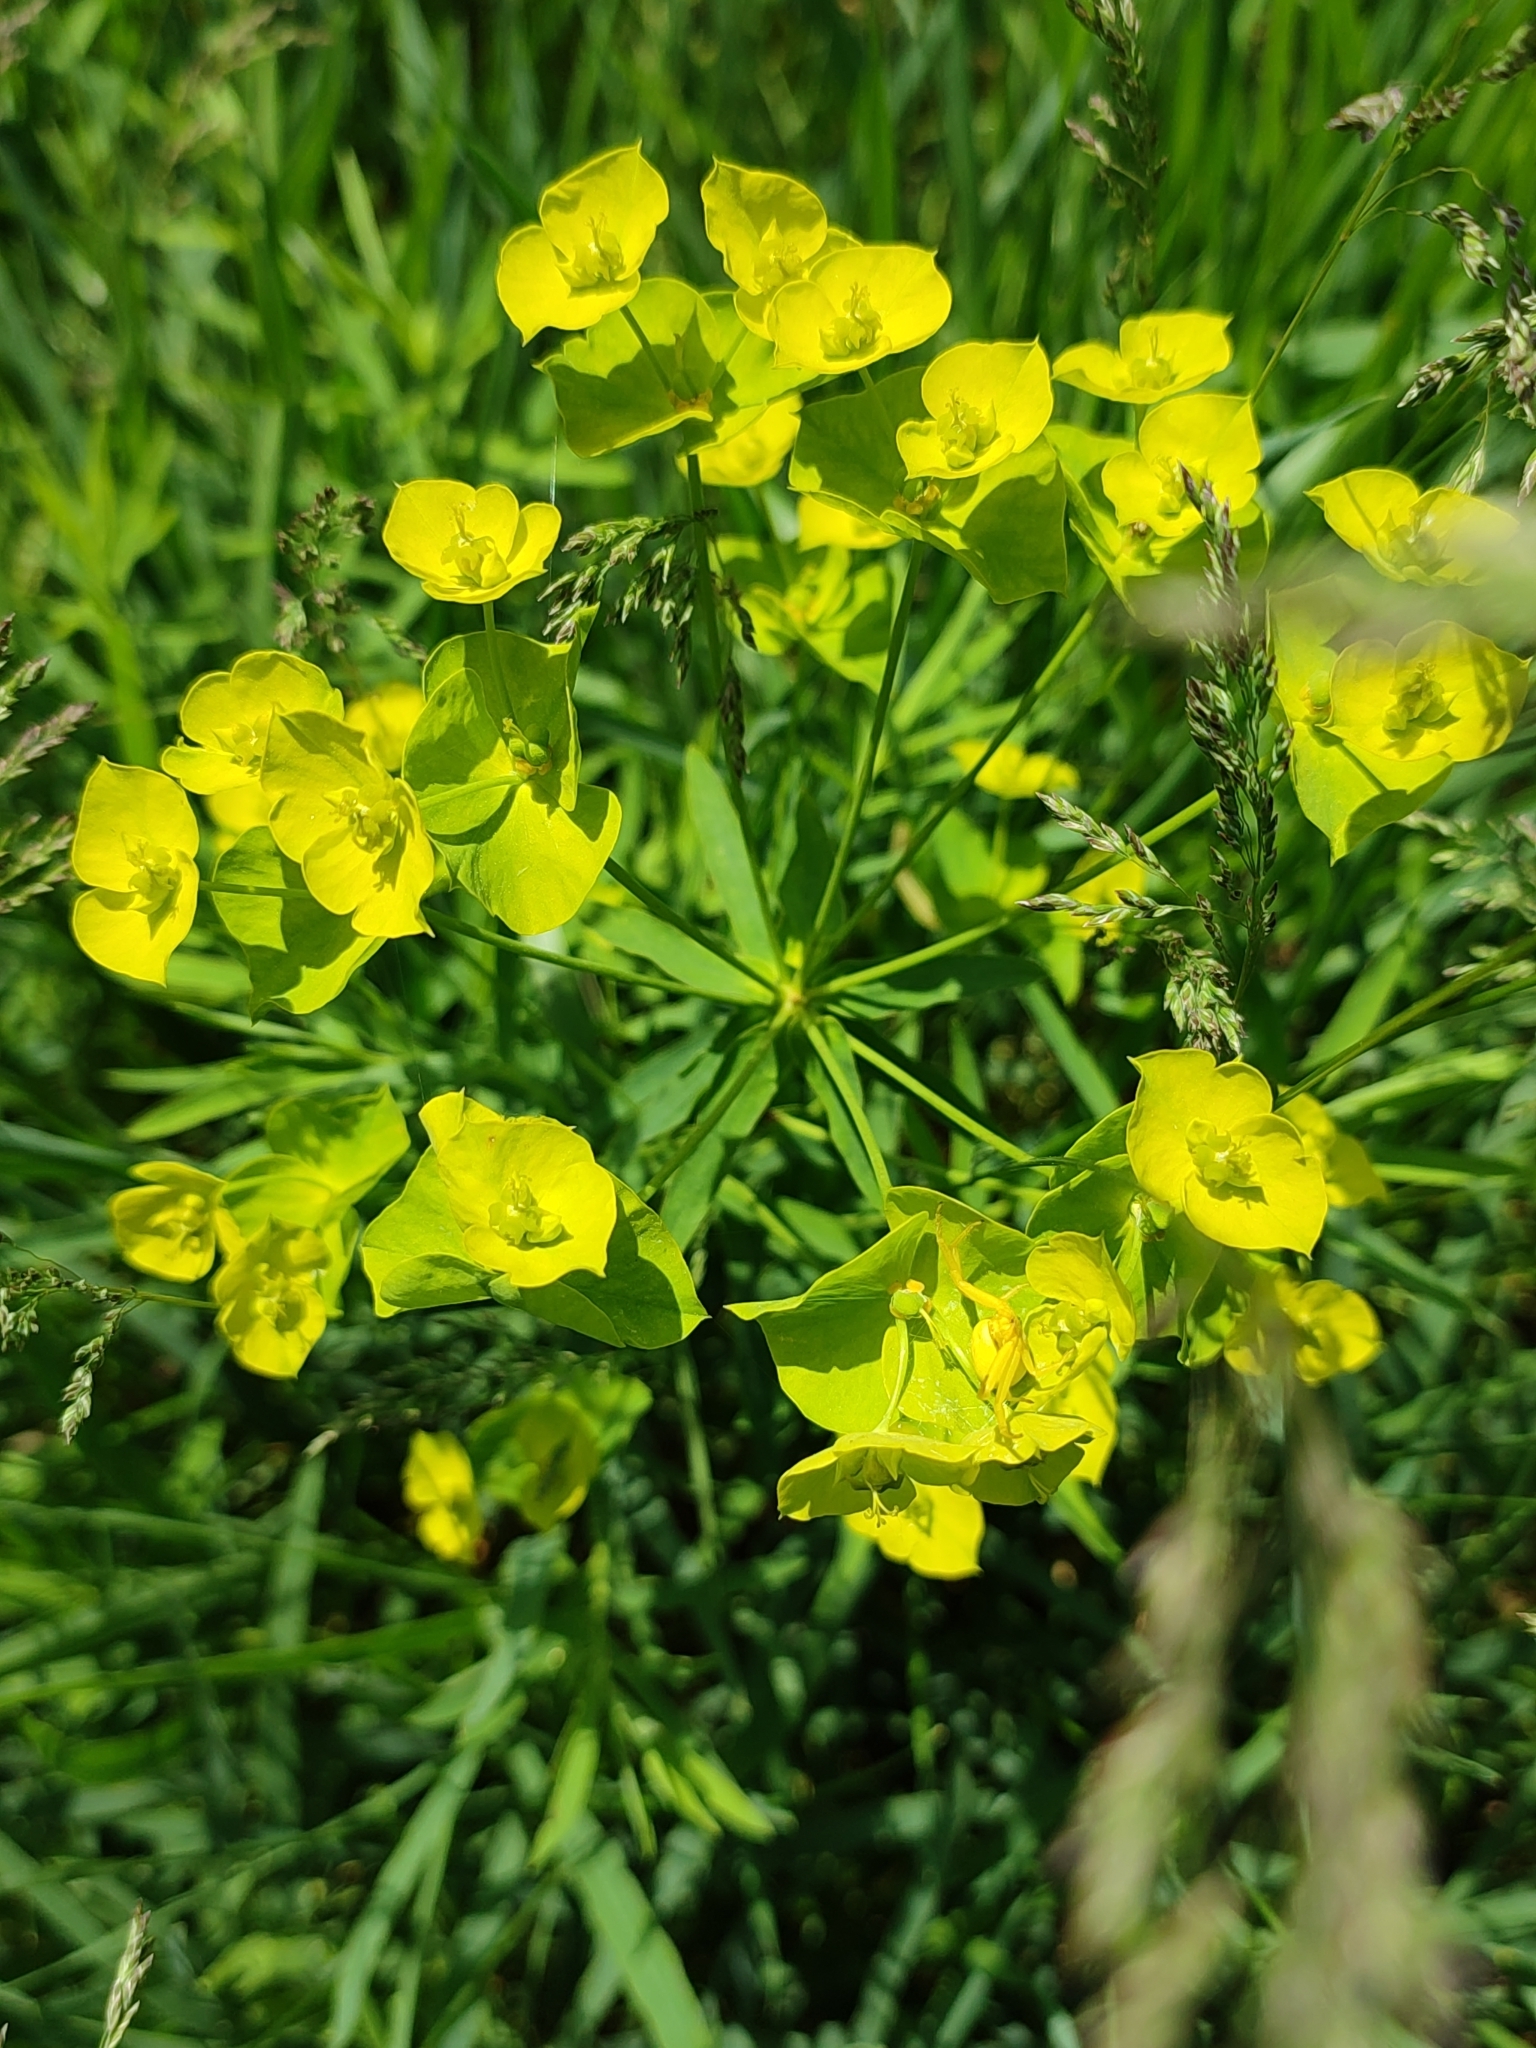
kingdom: Plantae
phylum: Tracheophyta
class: Magnoliopsida
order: Malpighiales
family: Euphorbiaceae
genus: Euphorbia
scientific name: Euphorbia saratoi
